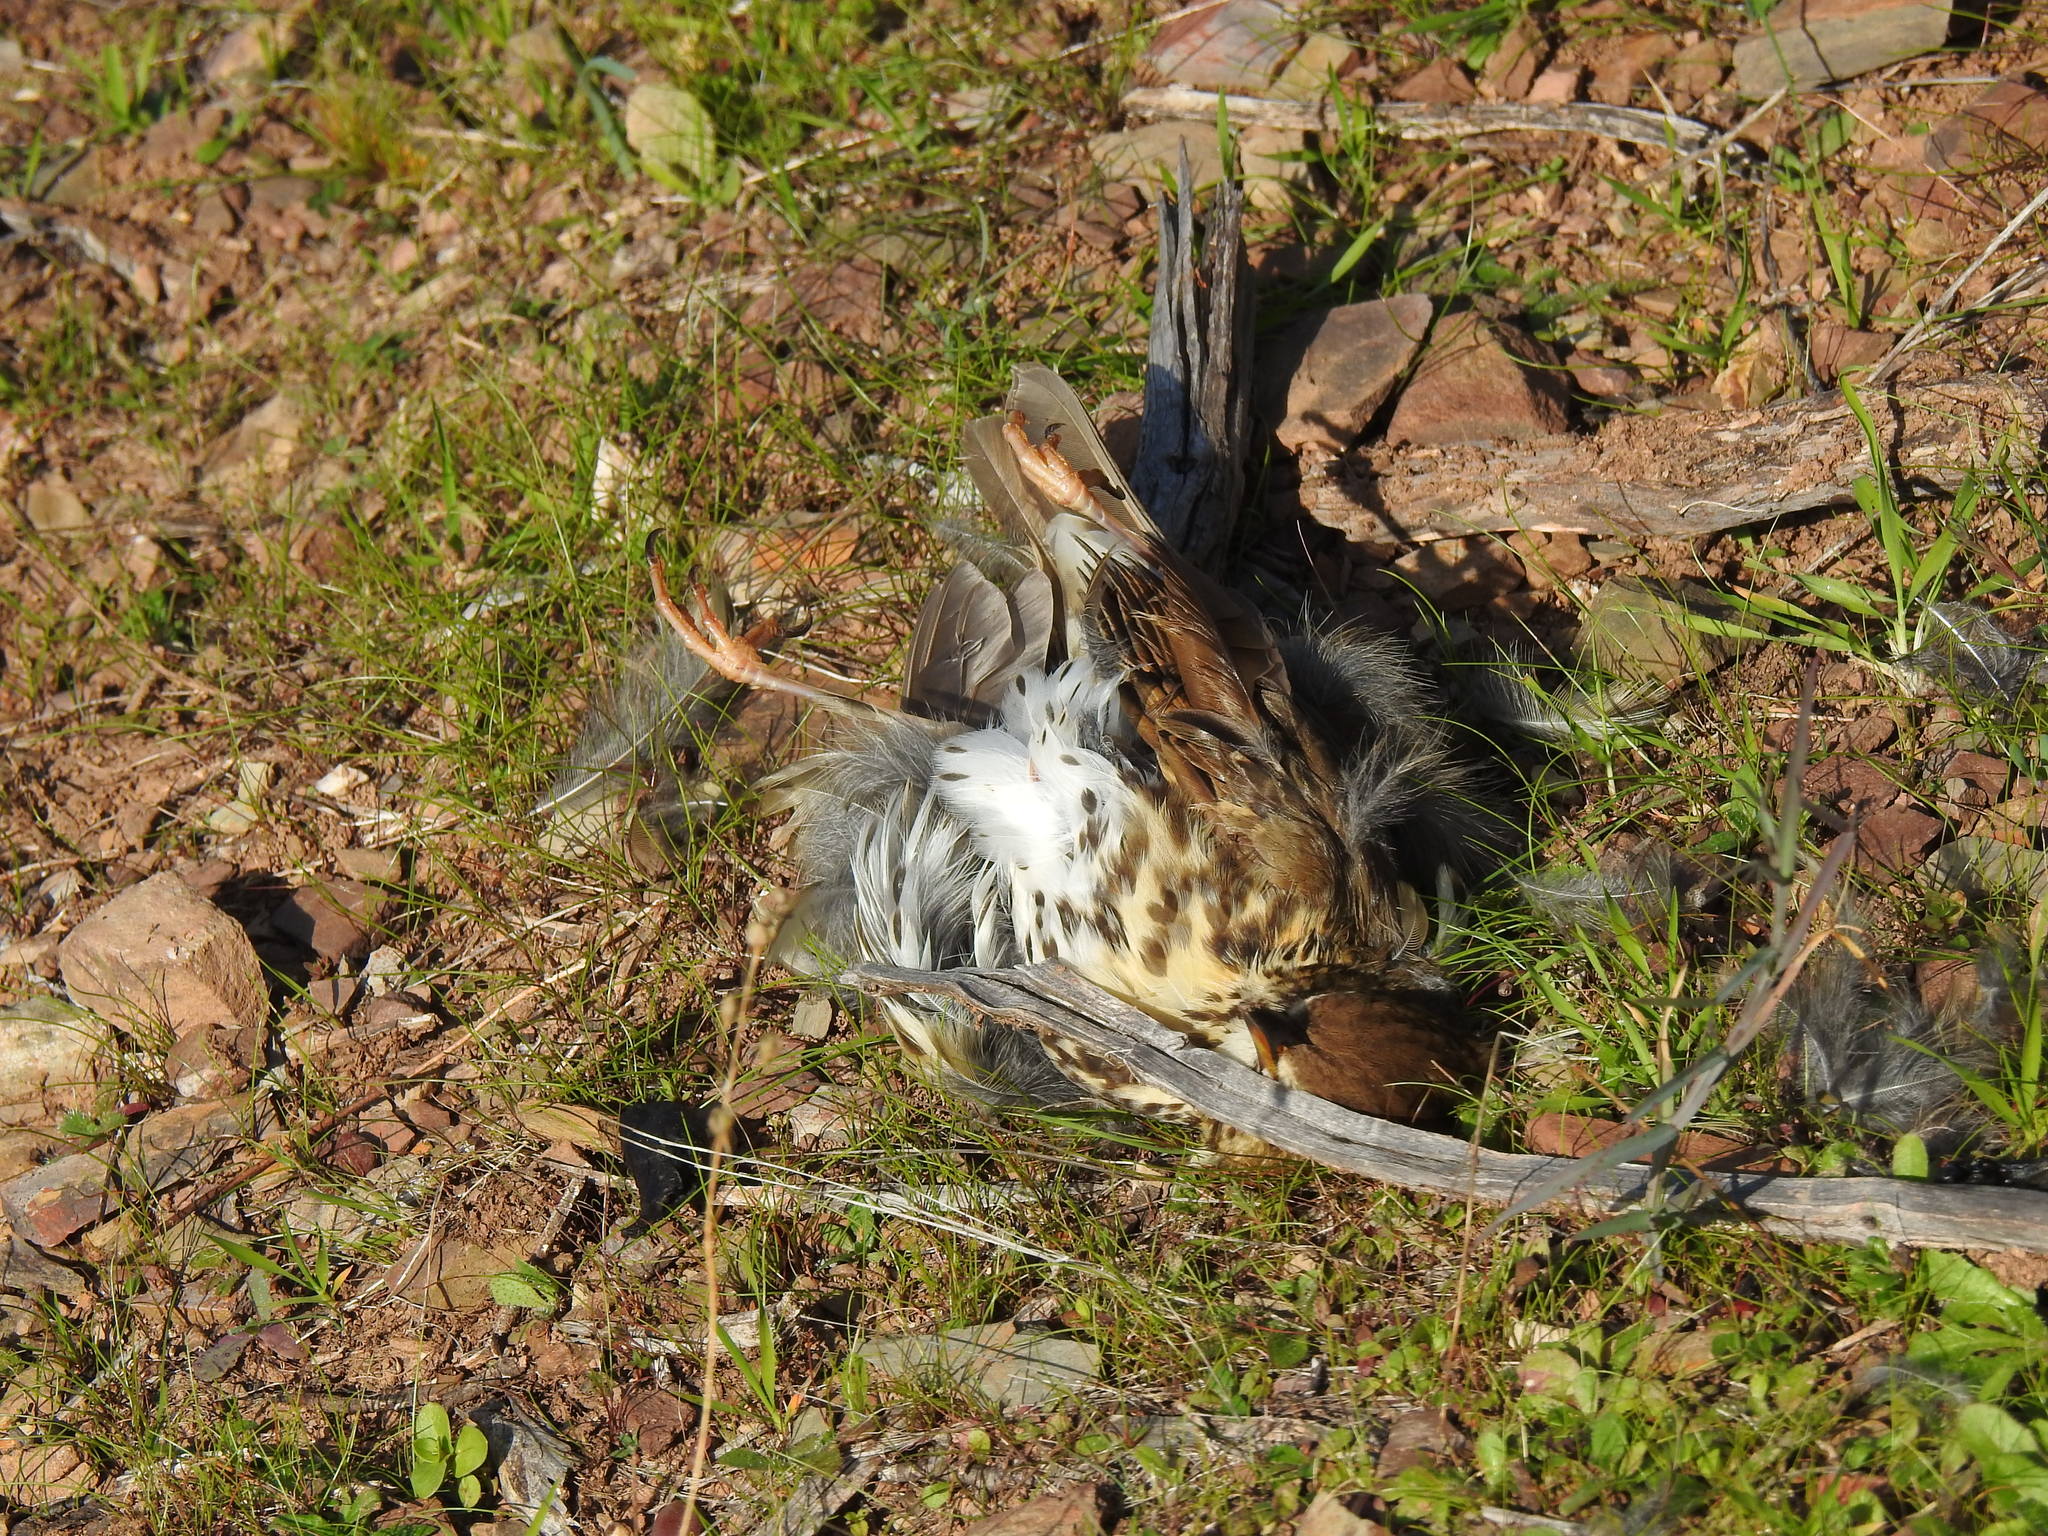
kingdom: Animalia
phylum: Chordata
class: Aves
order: Passeriformes
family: Turdidae
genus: Turdus
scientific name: Turdus philomelos
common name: Song thrush
